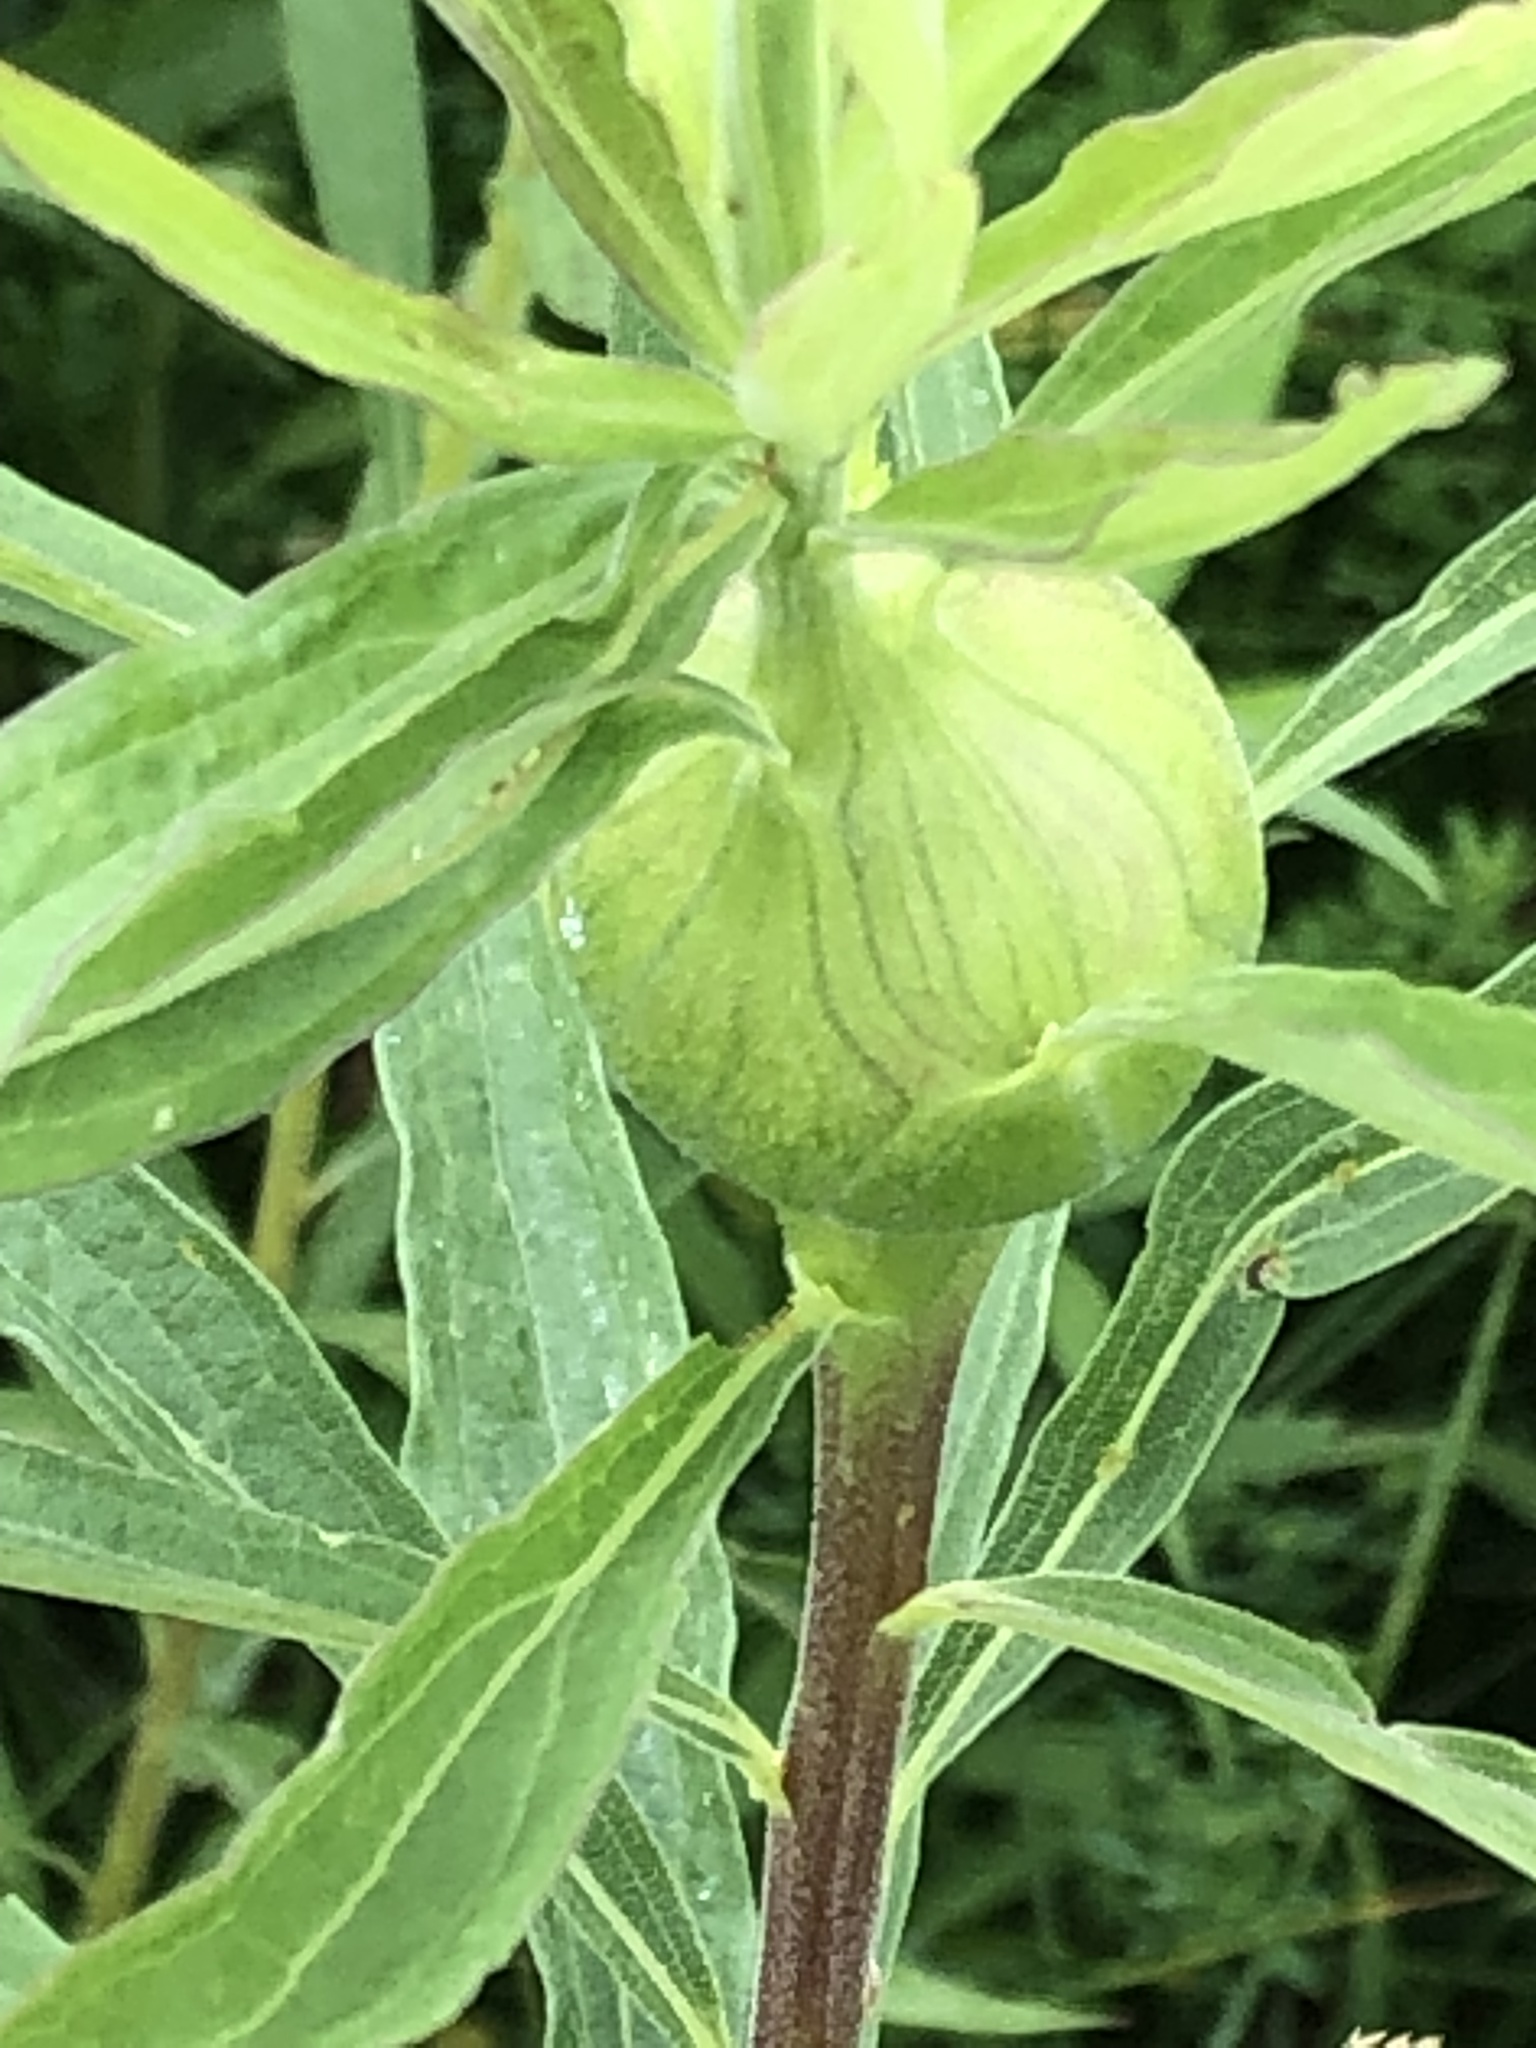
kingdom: Animalia
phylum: Arthropoda
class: Insecta
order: Diptera
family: Tephritidae
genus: Eurosta
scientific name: Eurosta solidaginis
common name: Goldenrod gall fly
